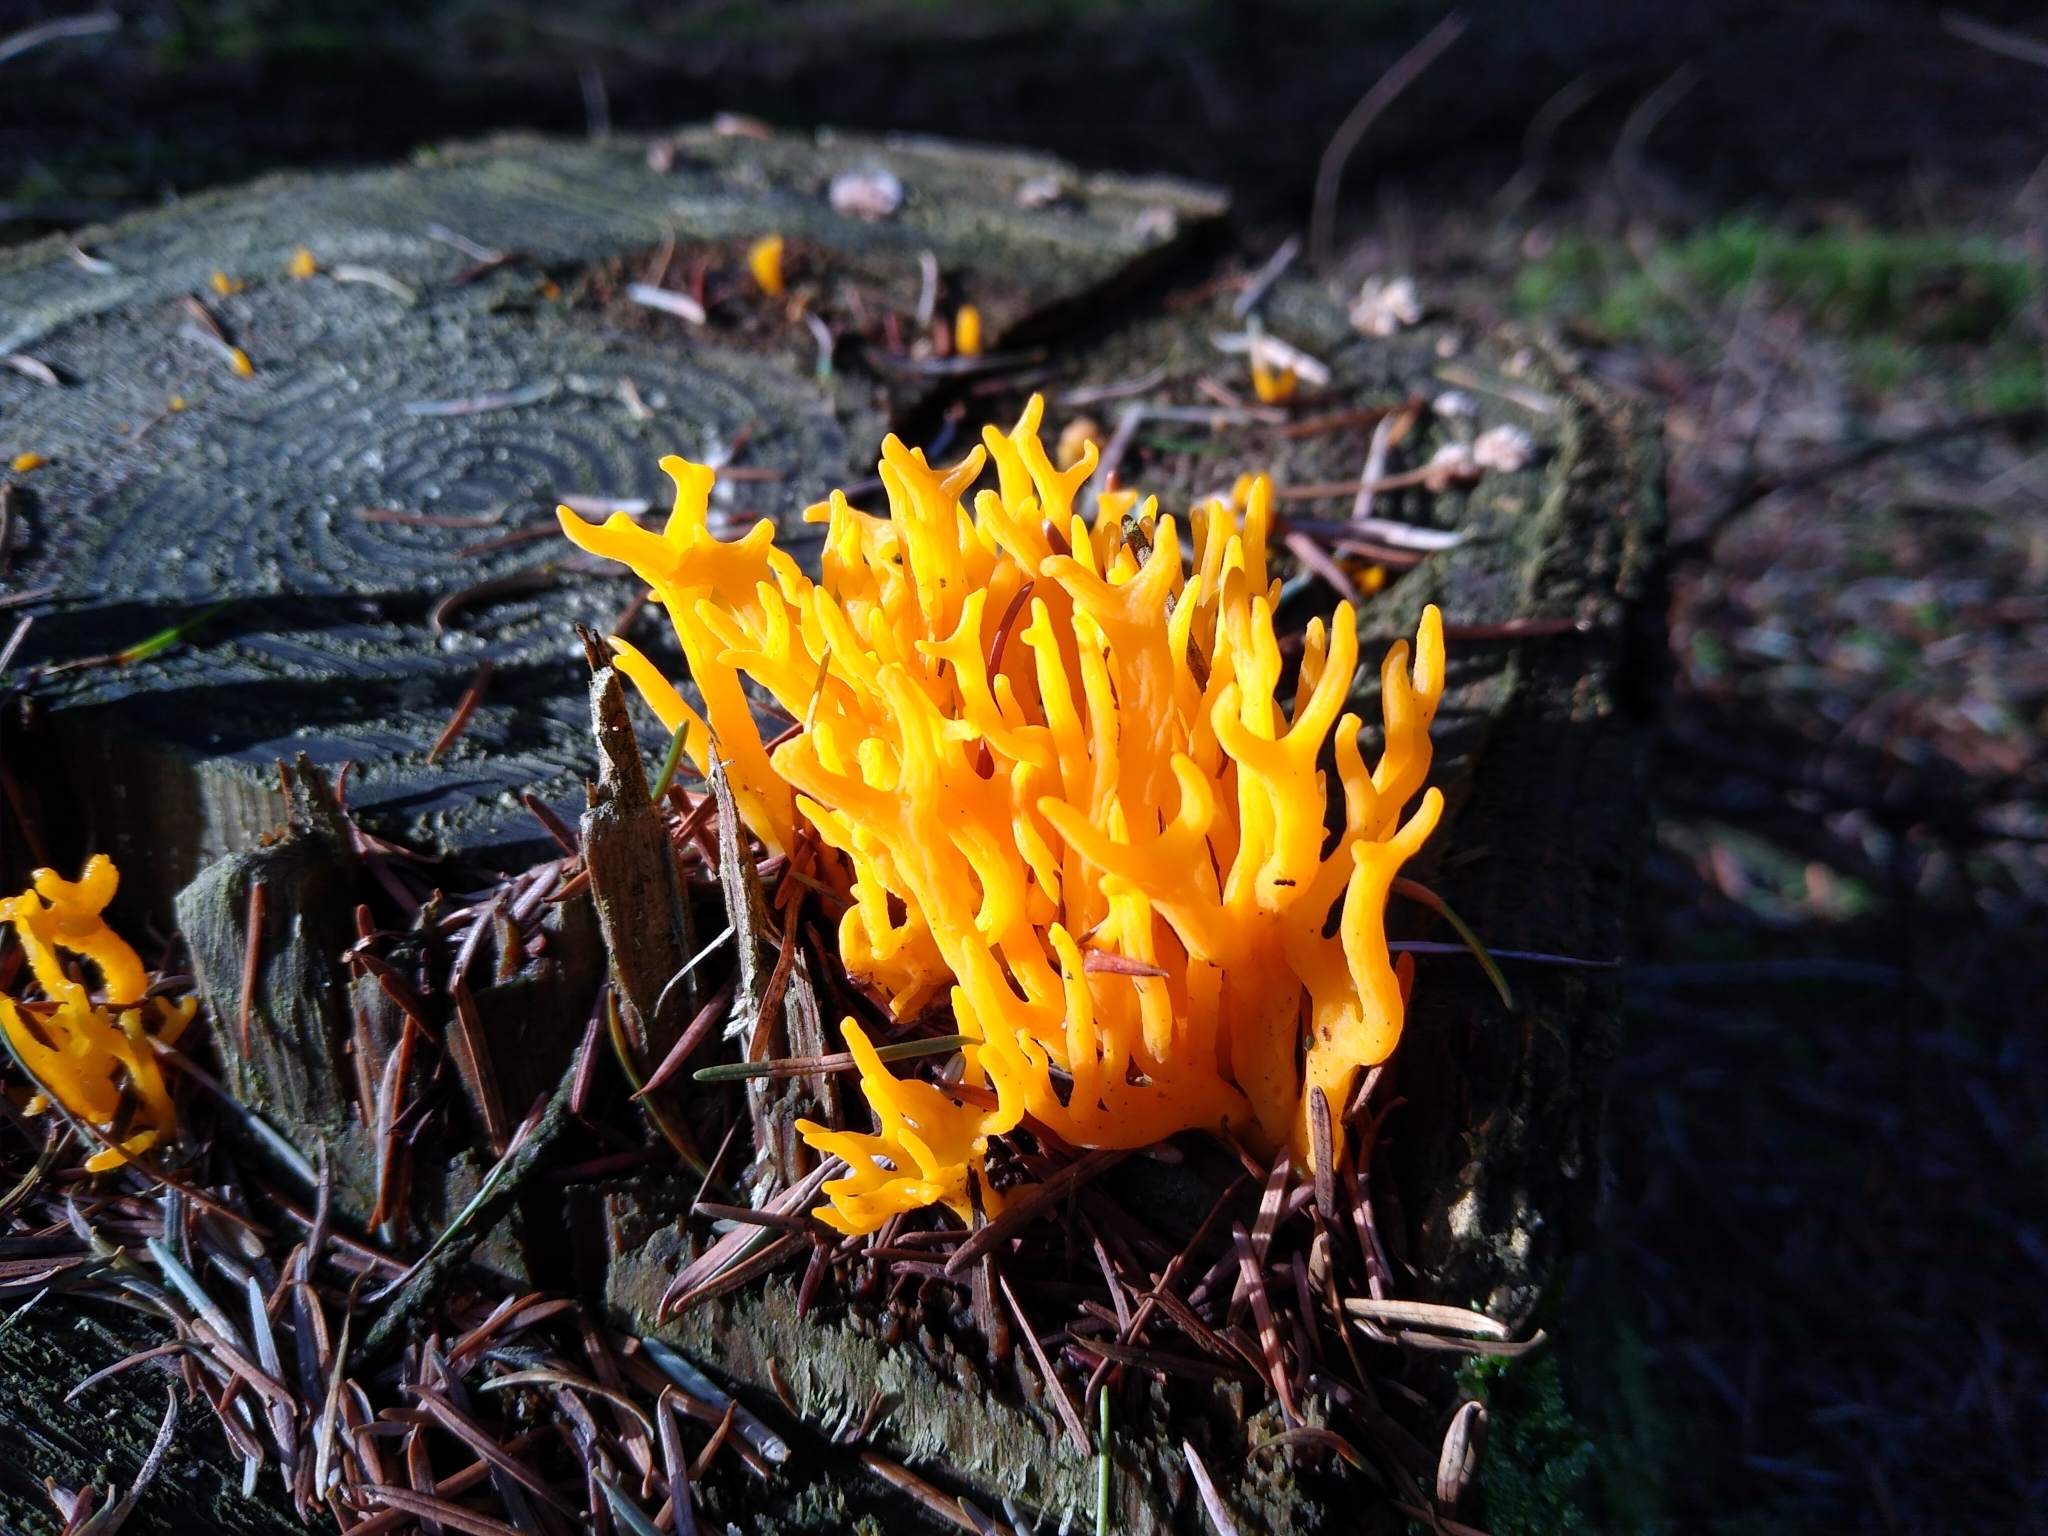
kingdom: Fungi
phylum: Basidiomycota
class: Dacrymycetes
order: Dacrymycetales
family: Dacrymycetaceae
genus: Calocera
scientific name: Calocera viscosa
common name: Yellow stagshorn
